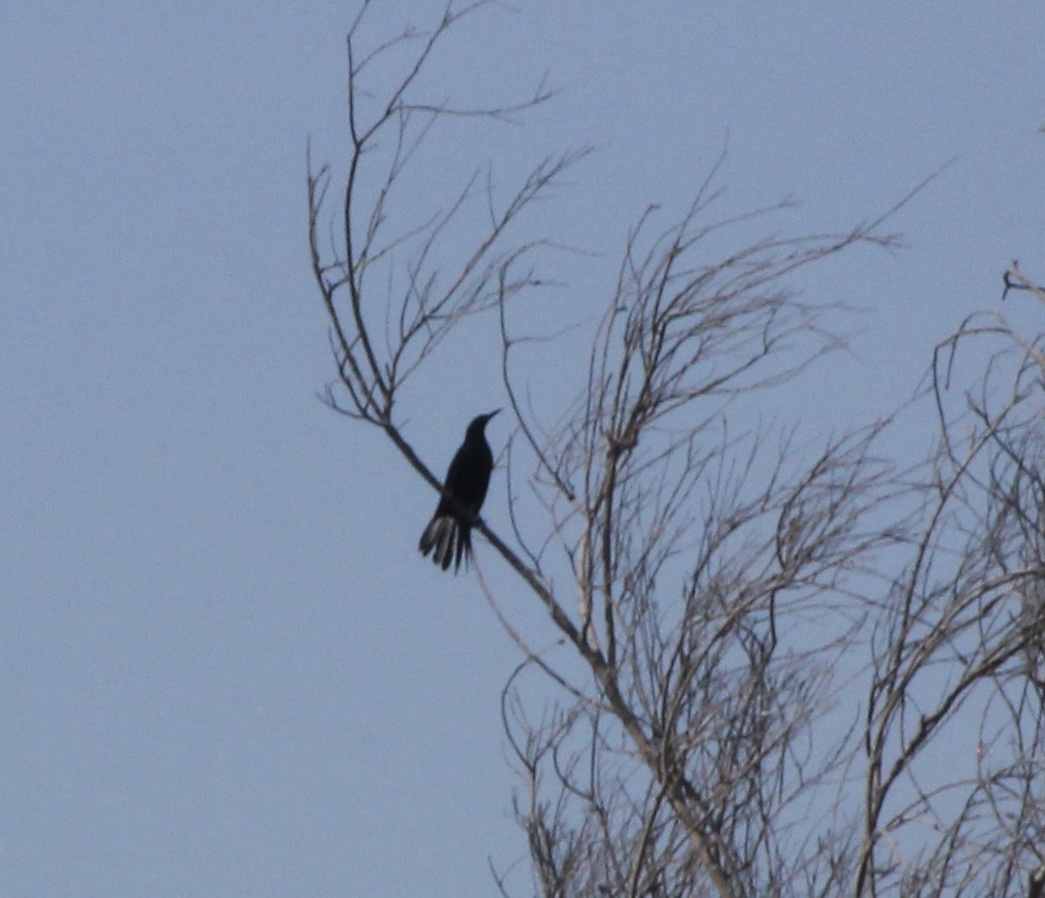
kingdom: Animalia
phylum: Chordata
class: Aves
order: Passeriformes
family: Icteridae
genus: Quiscalus
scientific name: Quiscalus mexicanus
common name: Great-tailed grackle
